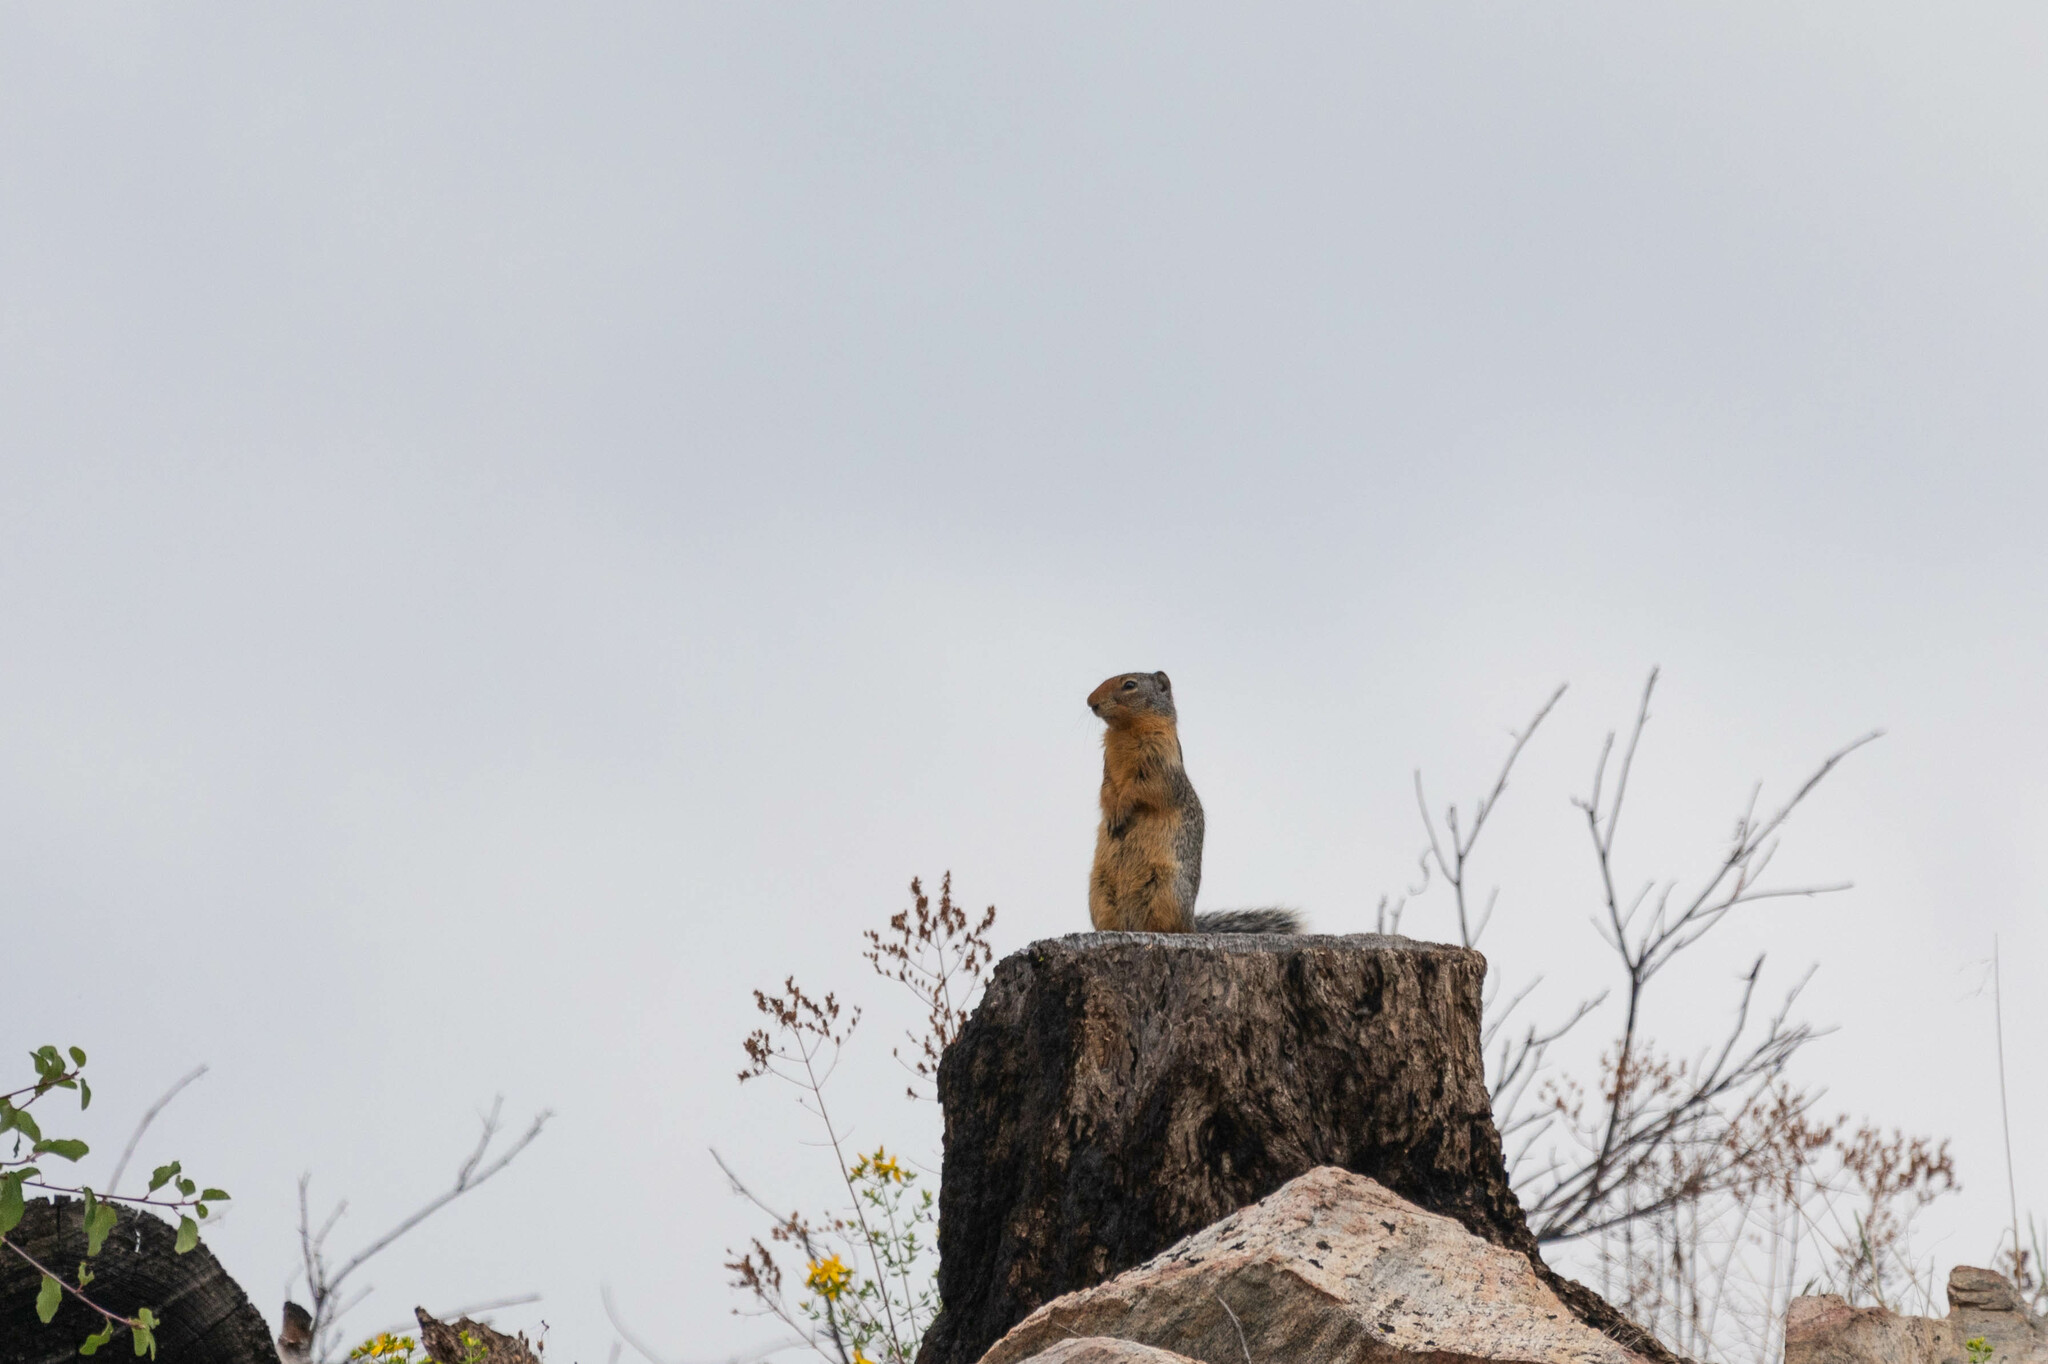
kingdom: Animalia
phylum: Chordata
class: Mammalia
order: Rodentia
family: Sciuridae
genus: Urocitellus
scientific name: Urocitellus columbianus
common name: Columbian ground squirrel
